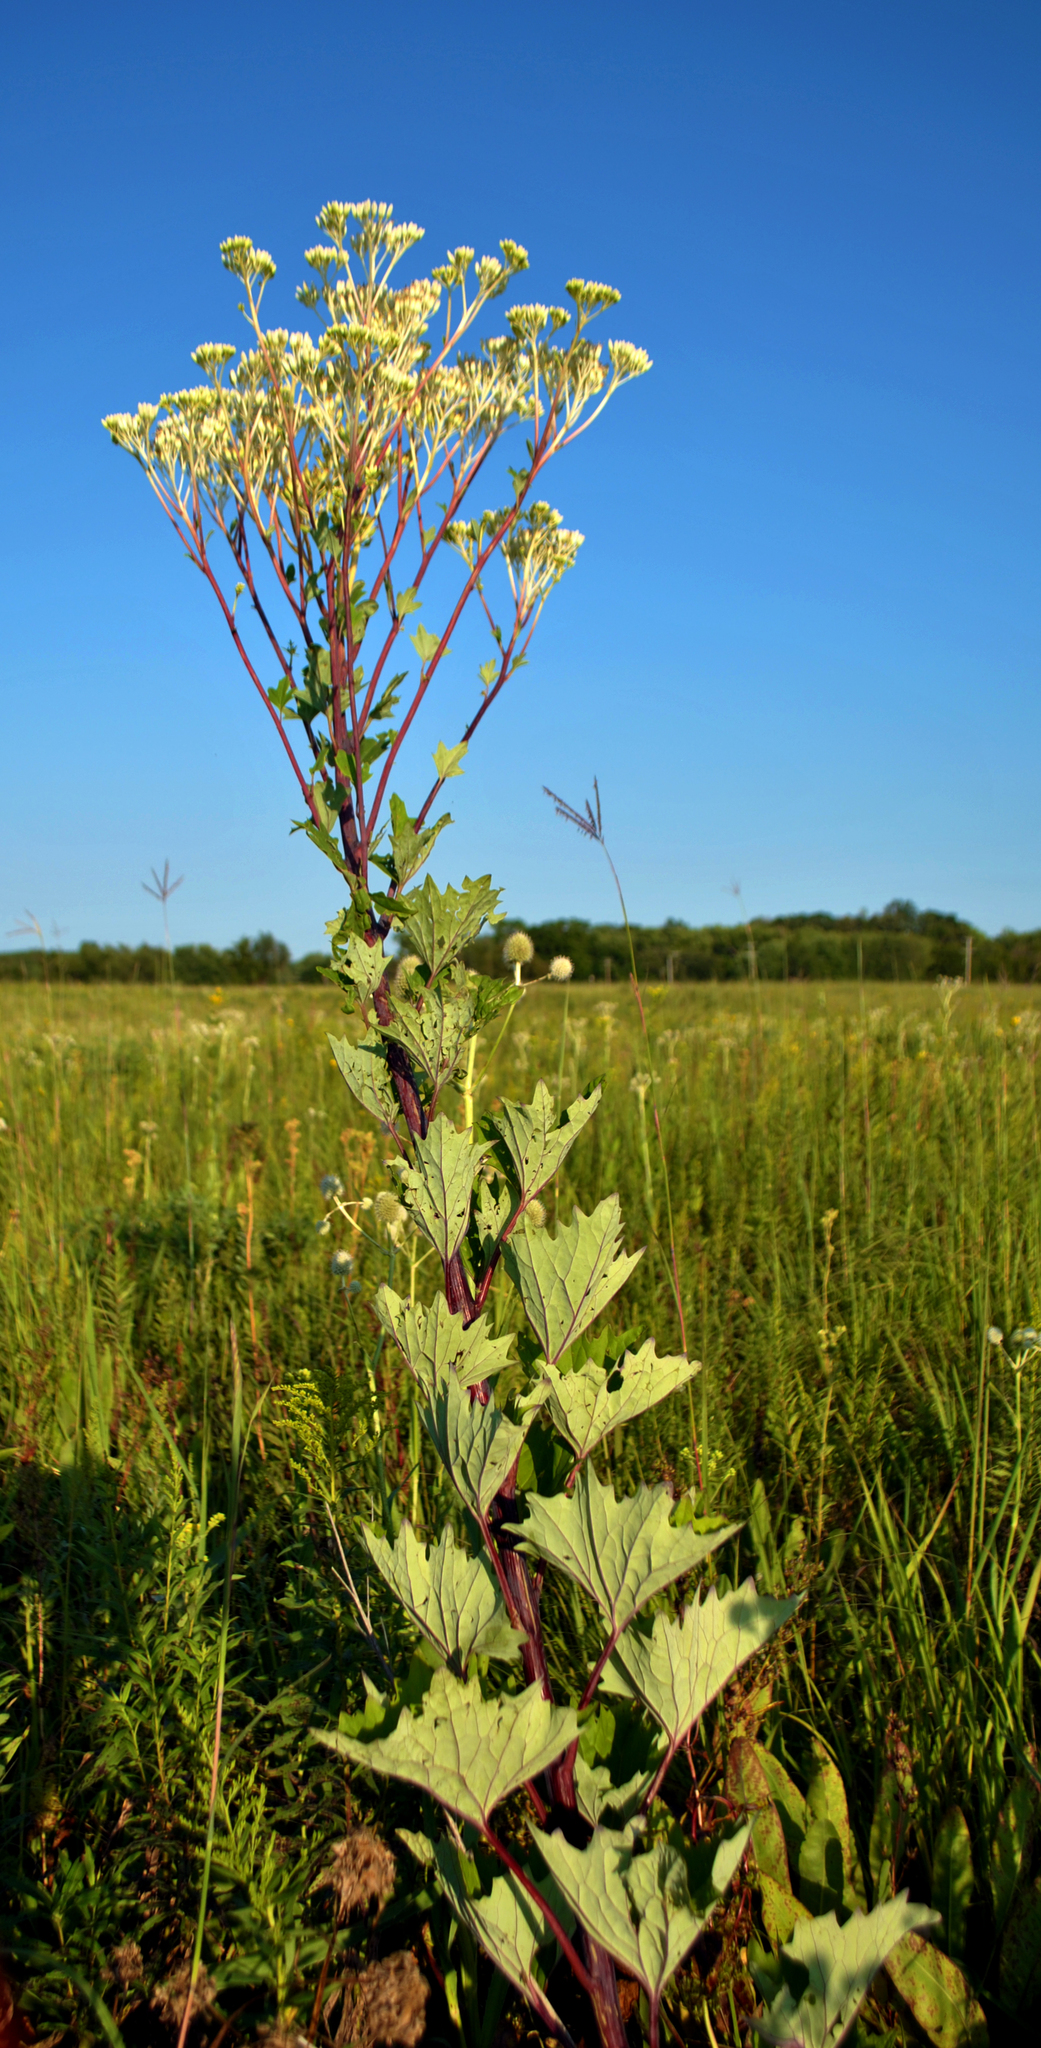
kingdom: Plantae
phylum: Tracheophyta
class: Magnoliopsida
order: Asterales
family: Asteraceae
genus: Arnoglossum
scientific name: Arnoglossum atriplicifolium
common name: Pale indian-plantain
